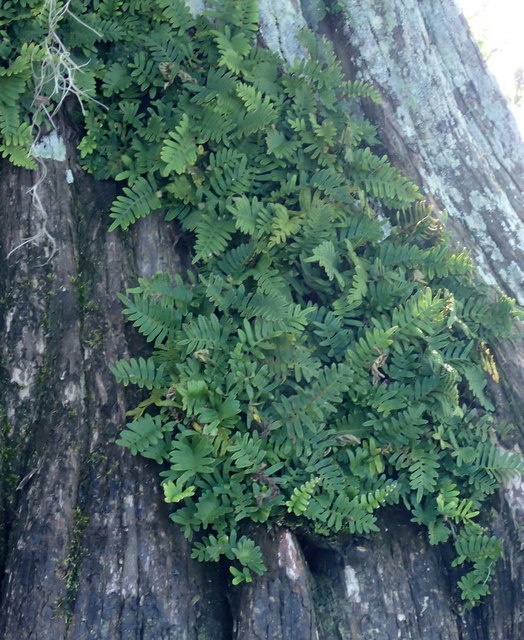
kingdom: Plantae
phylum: Tracheophyta
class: Polypodiopsida
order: Polypodiales
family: Polypodiaceae
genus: Pleopeltis
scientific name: Pleopeltis michauxiana
